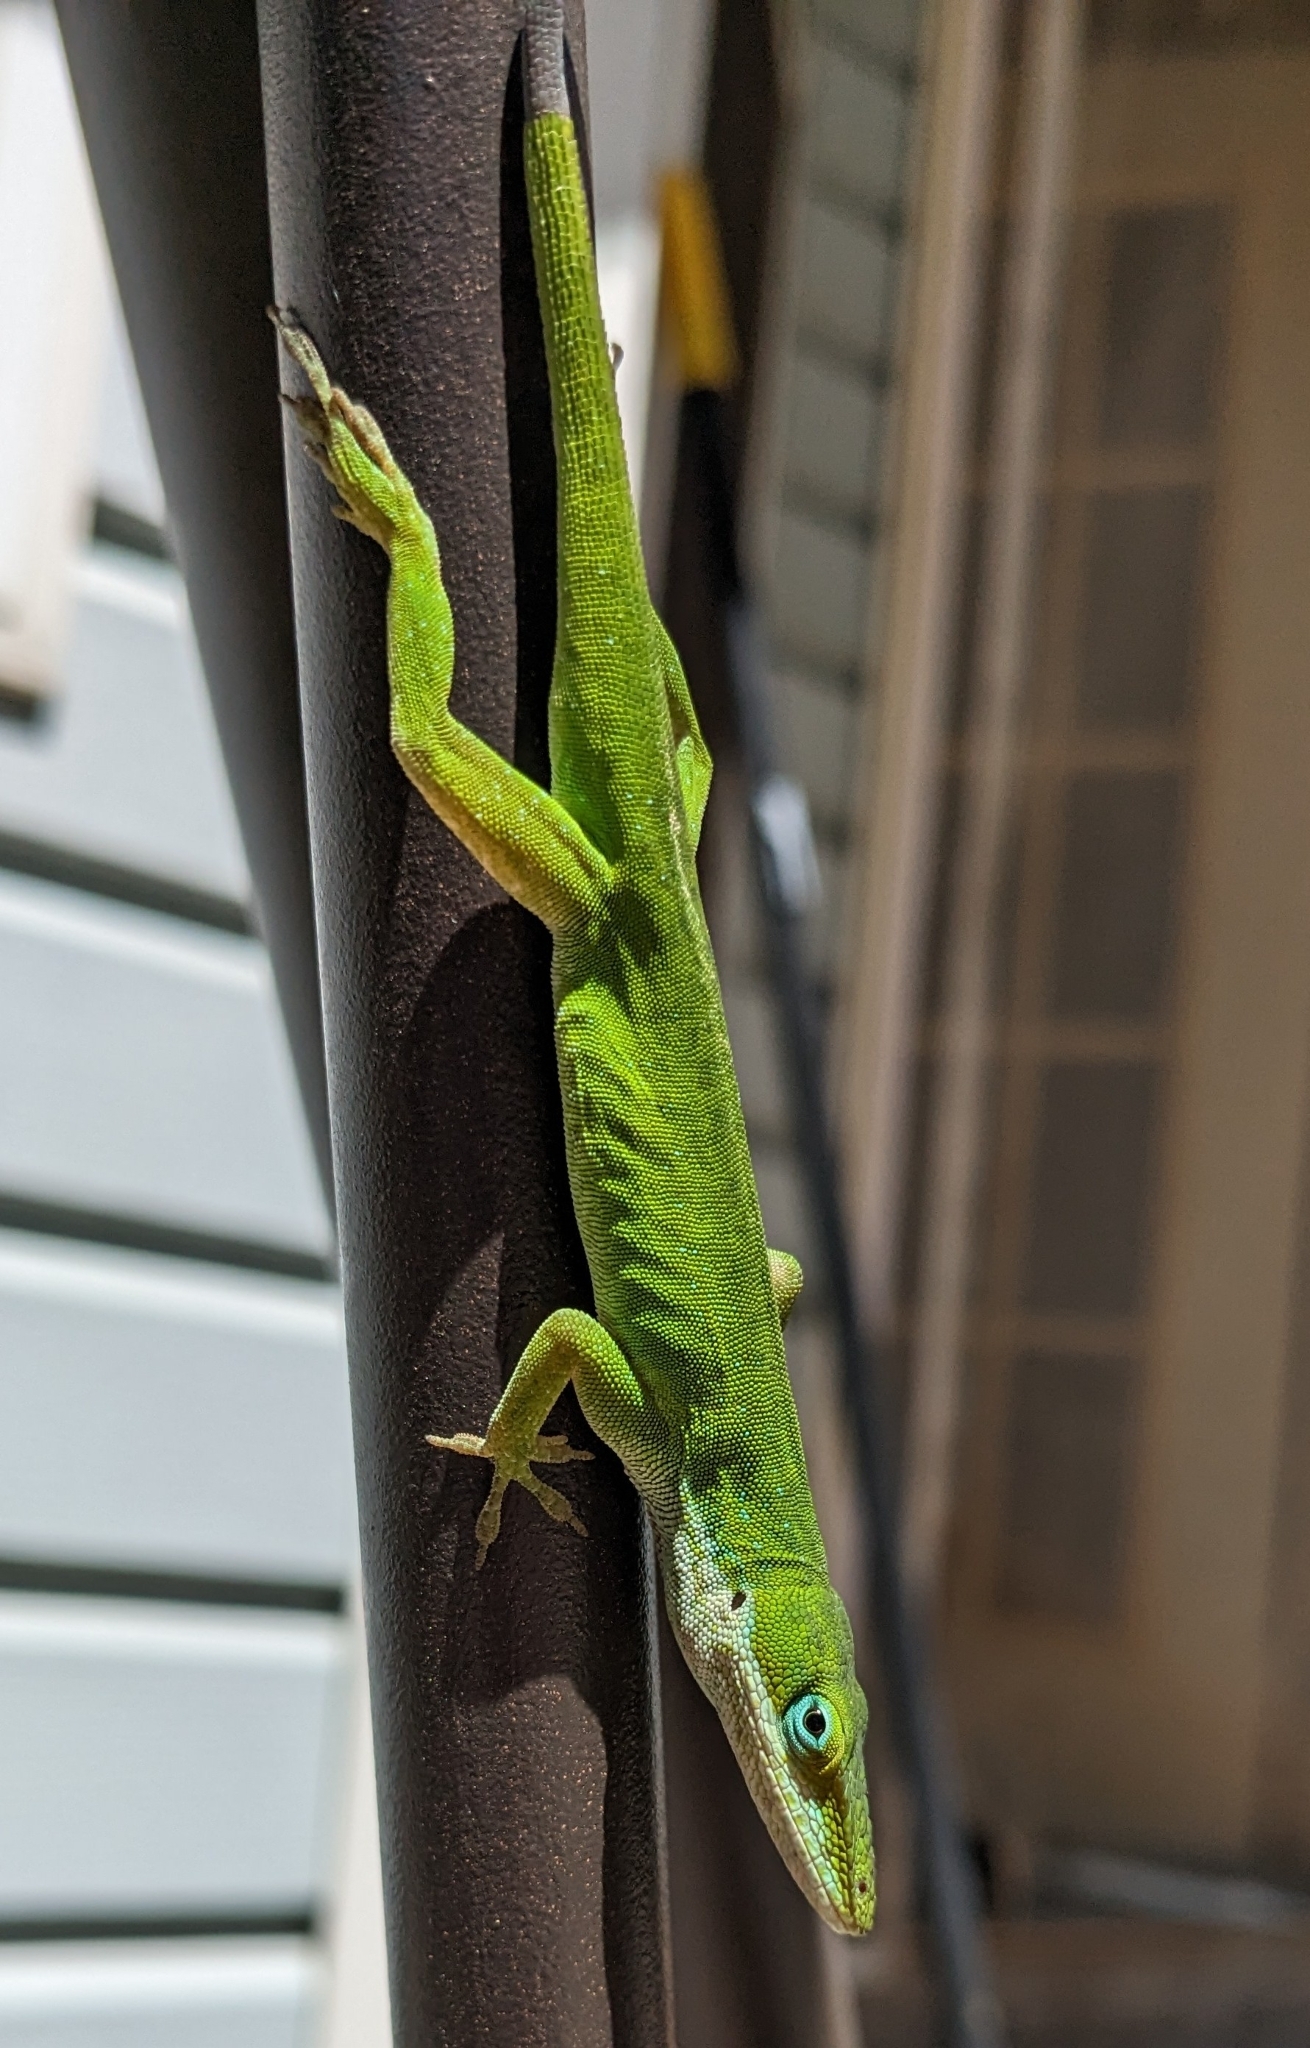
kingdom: Animalia
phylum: Chordata
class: Squamata
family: Dactyloidae
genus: Anolis
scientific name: Anolis carolinensis
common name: Green anole
